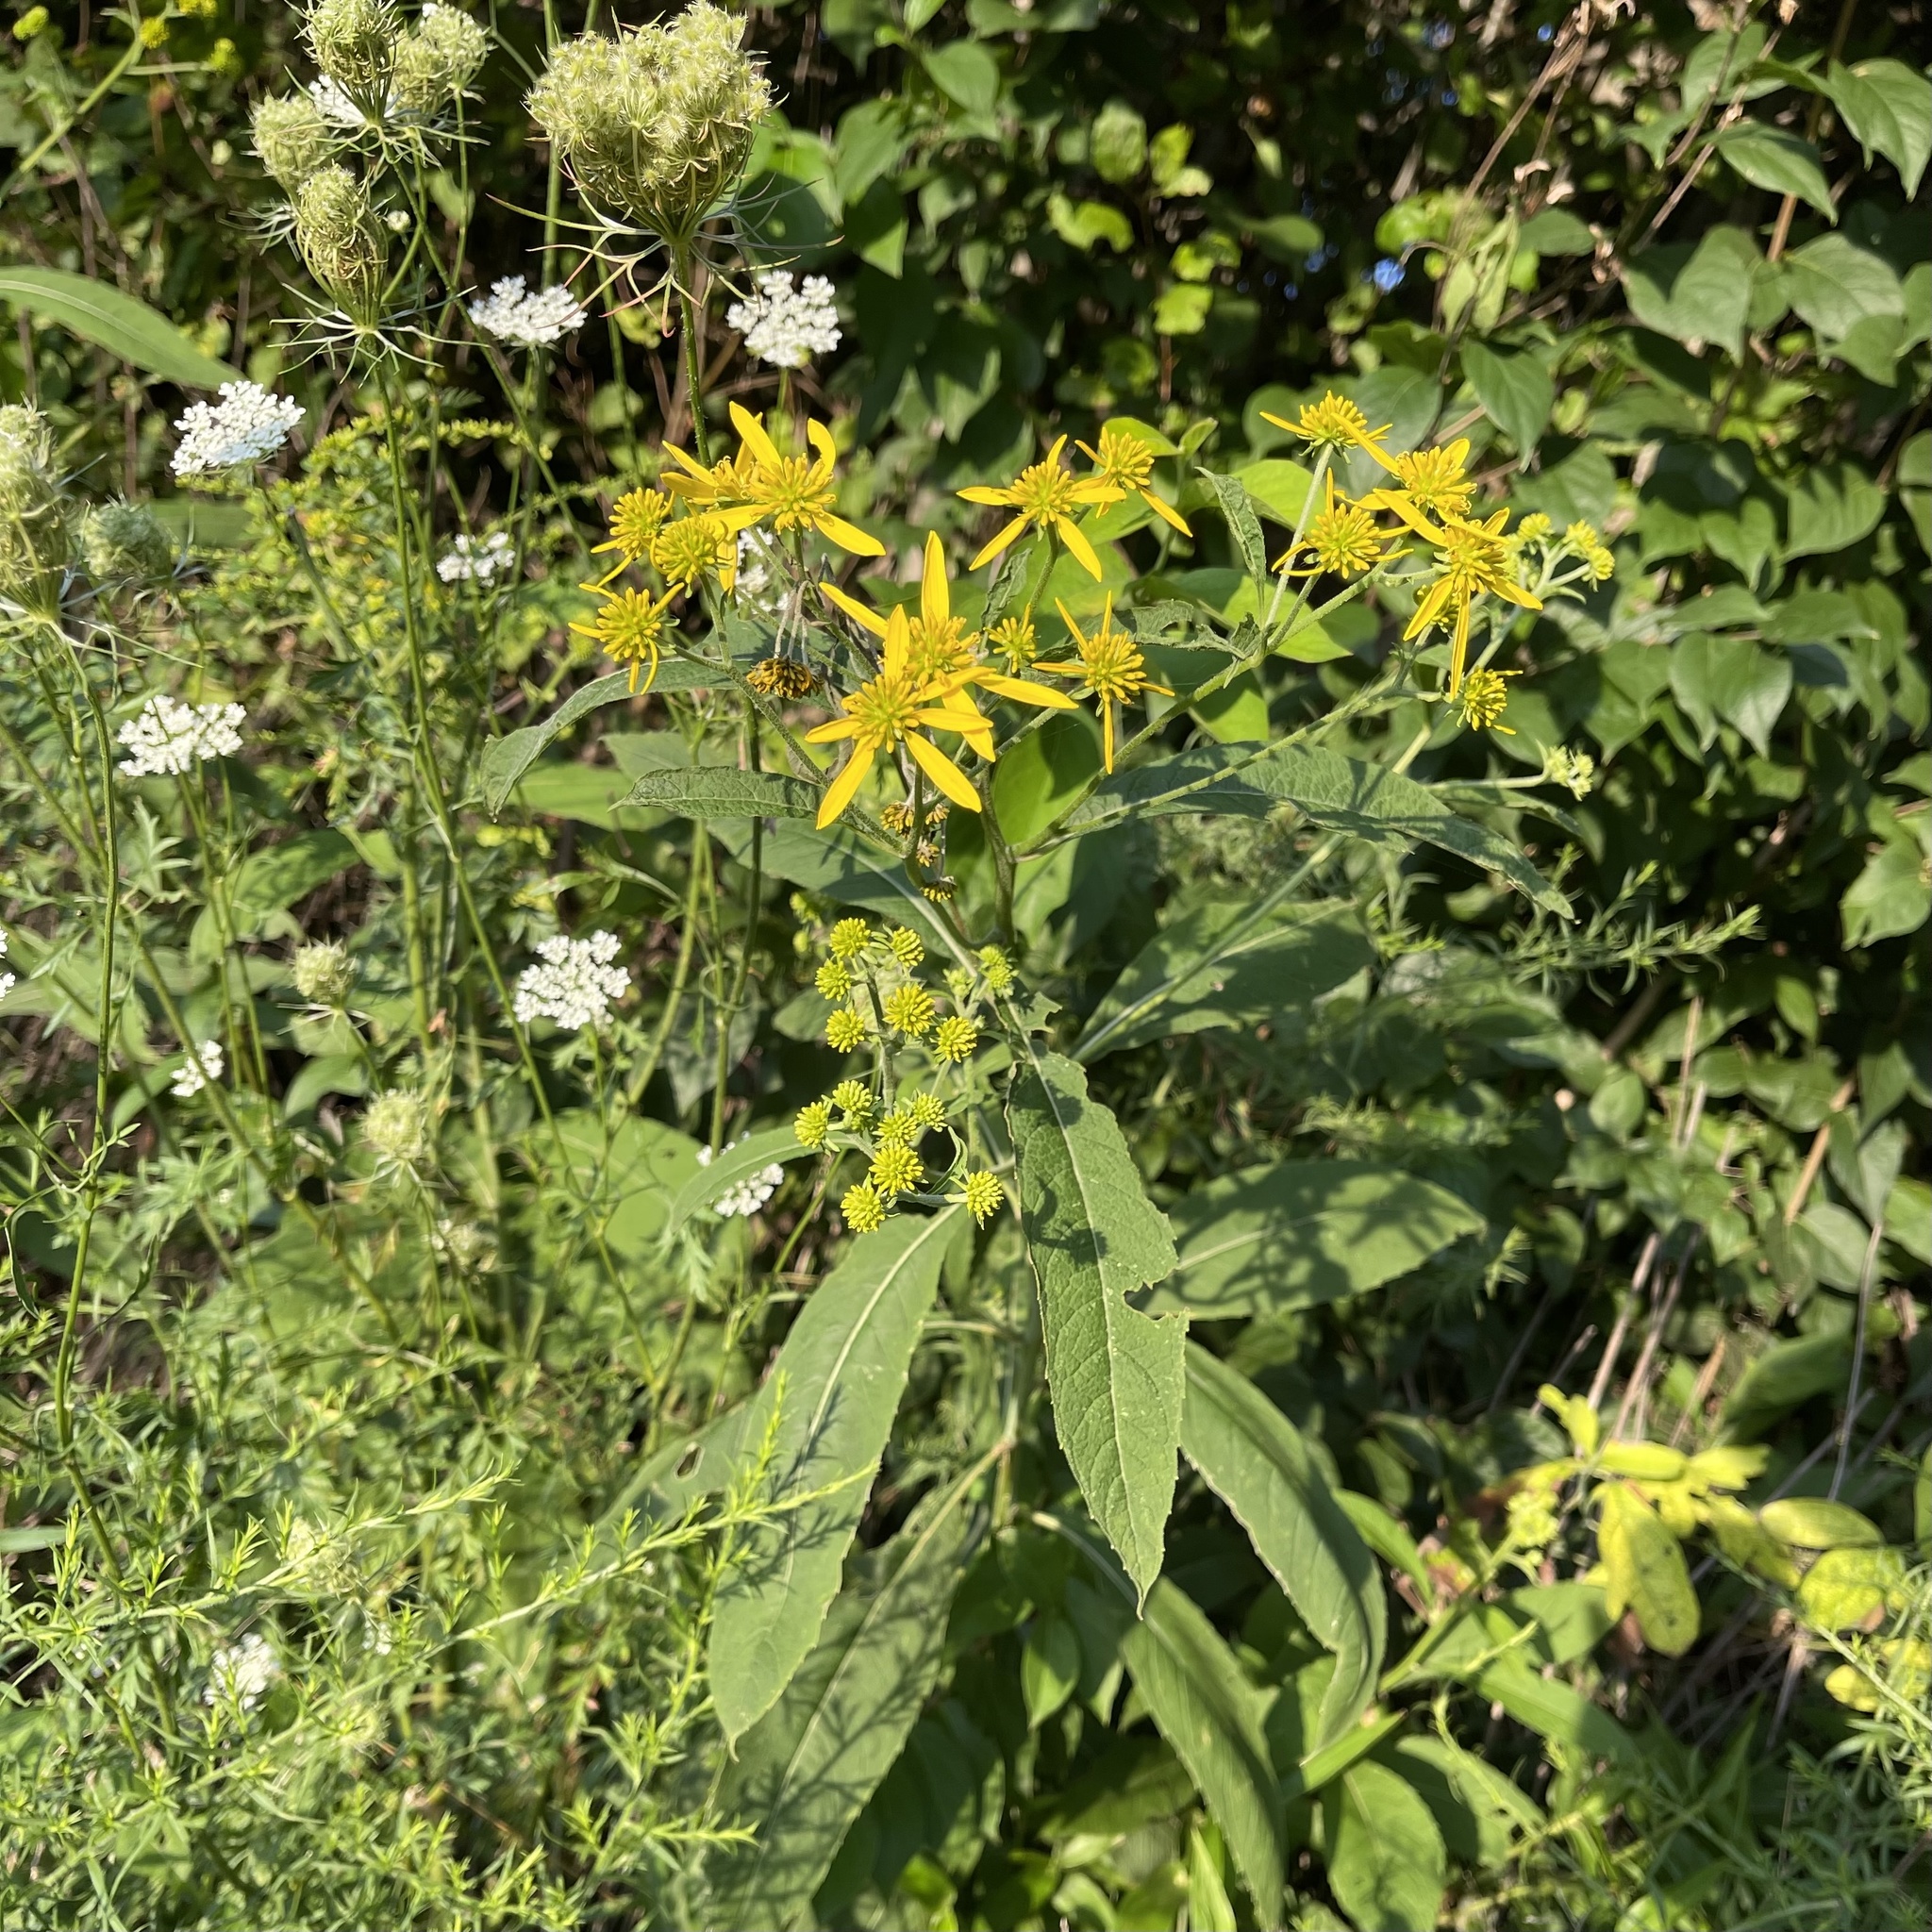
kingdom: Plantae
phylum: Tracheophyta
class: Magnoliopsida
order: Asterales
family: Asteraceae
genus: Verbesina
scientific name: Verbesina alternifolia
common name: Wingstem
